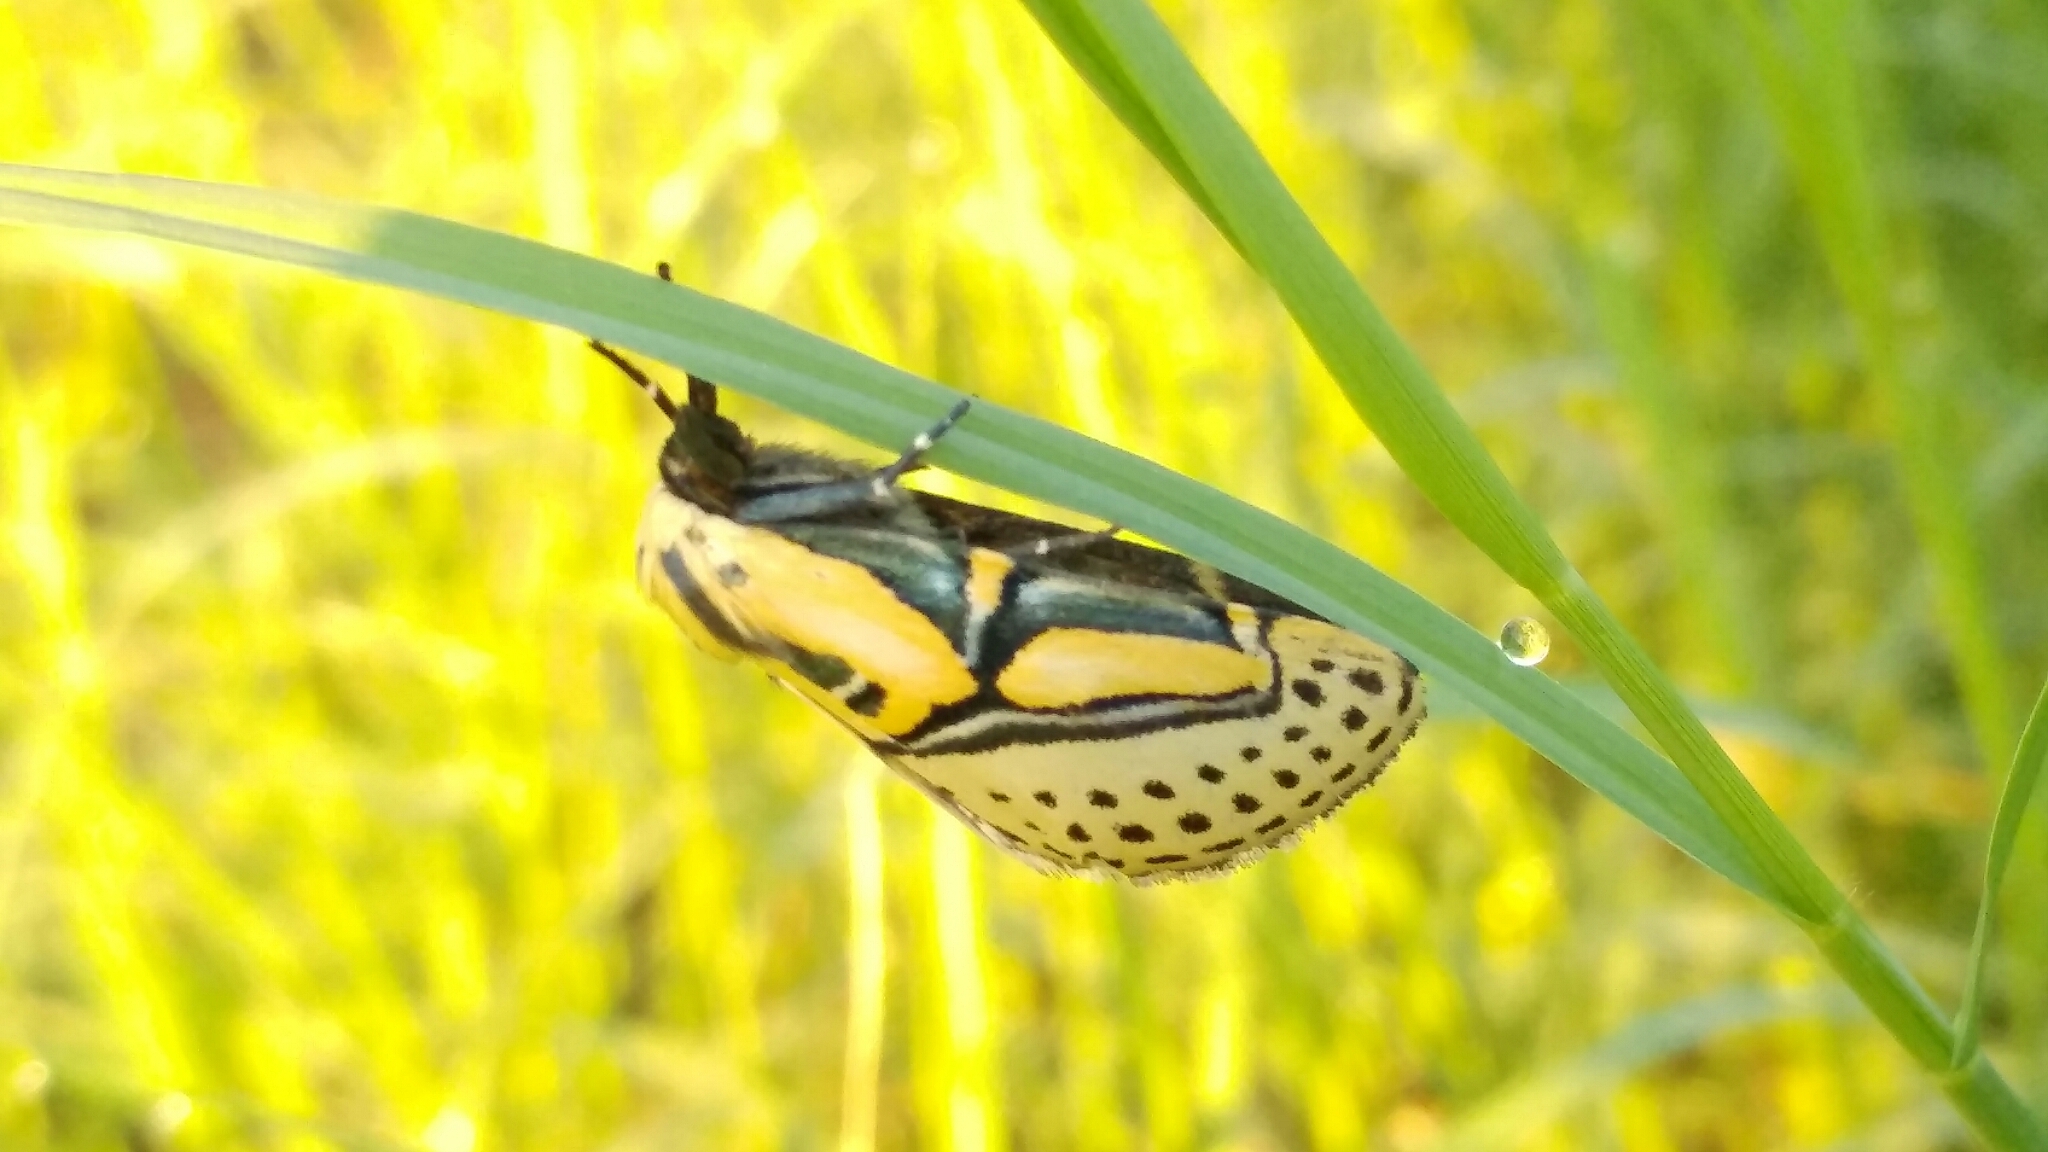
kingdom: Animalia
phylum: Arthropoda
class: Insecta
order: Lepidoptera
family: Erebidae
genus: Diphthera
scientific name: Diphthera festiva
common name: Hieroglyphic moth
